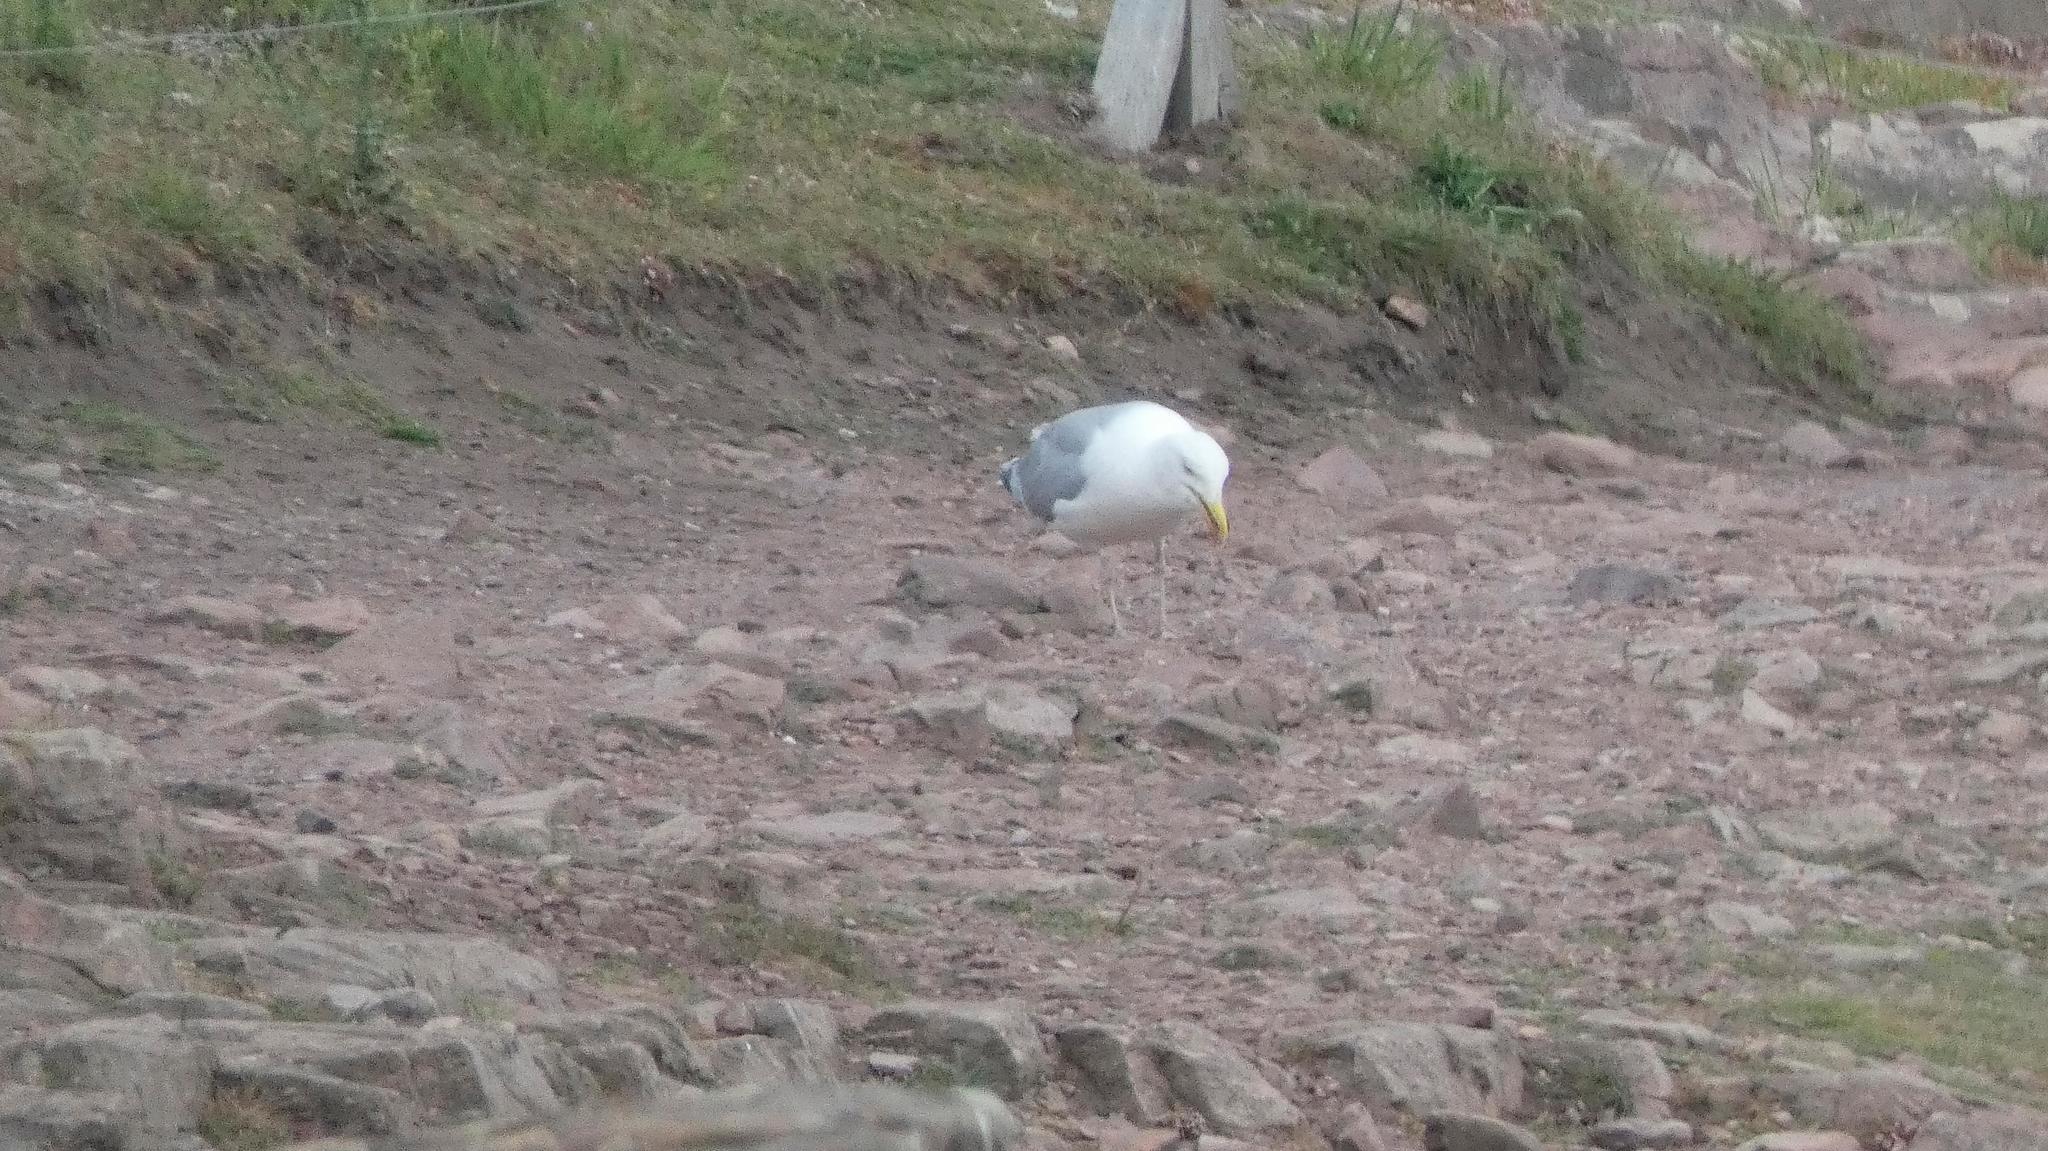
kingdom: Animalia
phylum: Chordata
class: Aves
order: Charadriiformes
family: Laridae
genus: Larus
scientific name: Larus argentatus
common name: Herring gull
